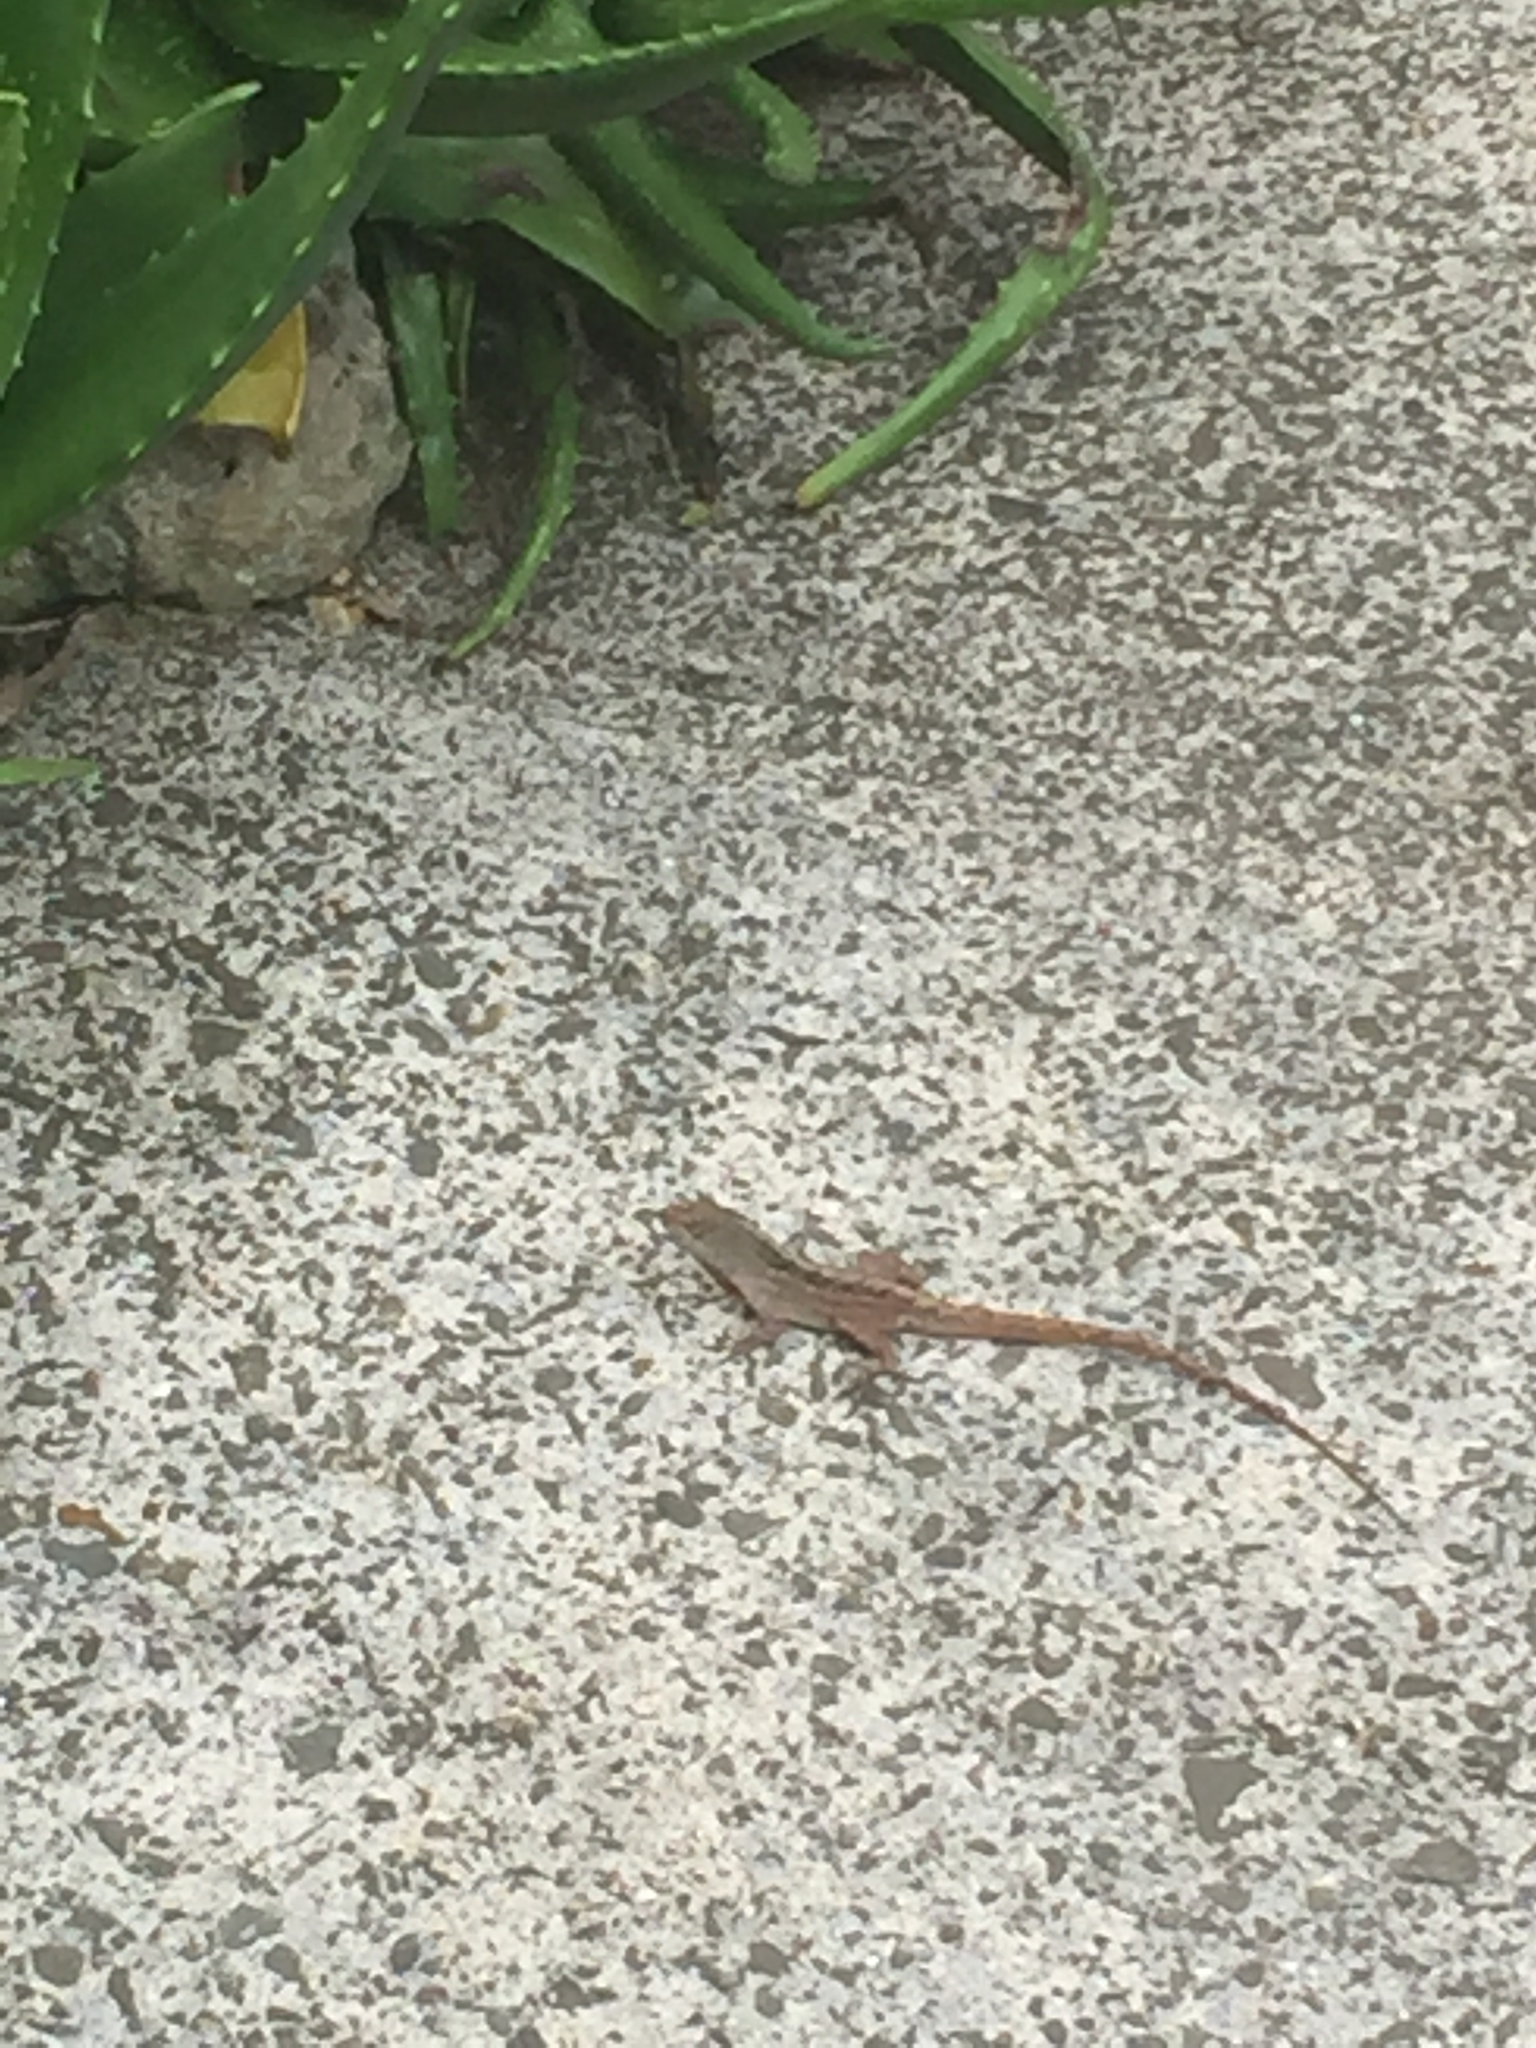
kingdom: Animalia
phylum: Chordata
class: Squamata
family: Dactyloidae
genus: Anolis
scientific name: Anolis sagrei
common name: Brown anole
